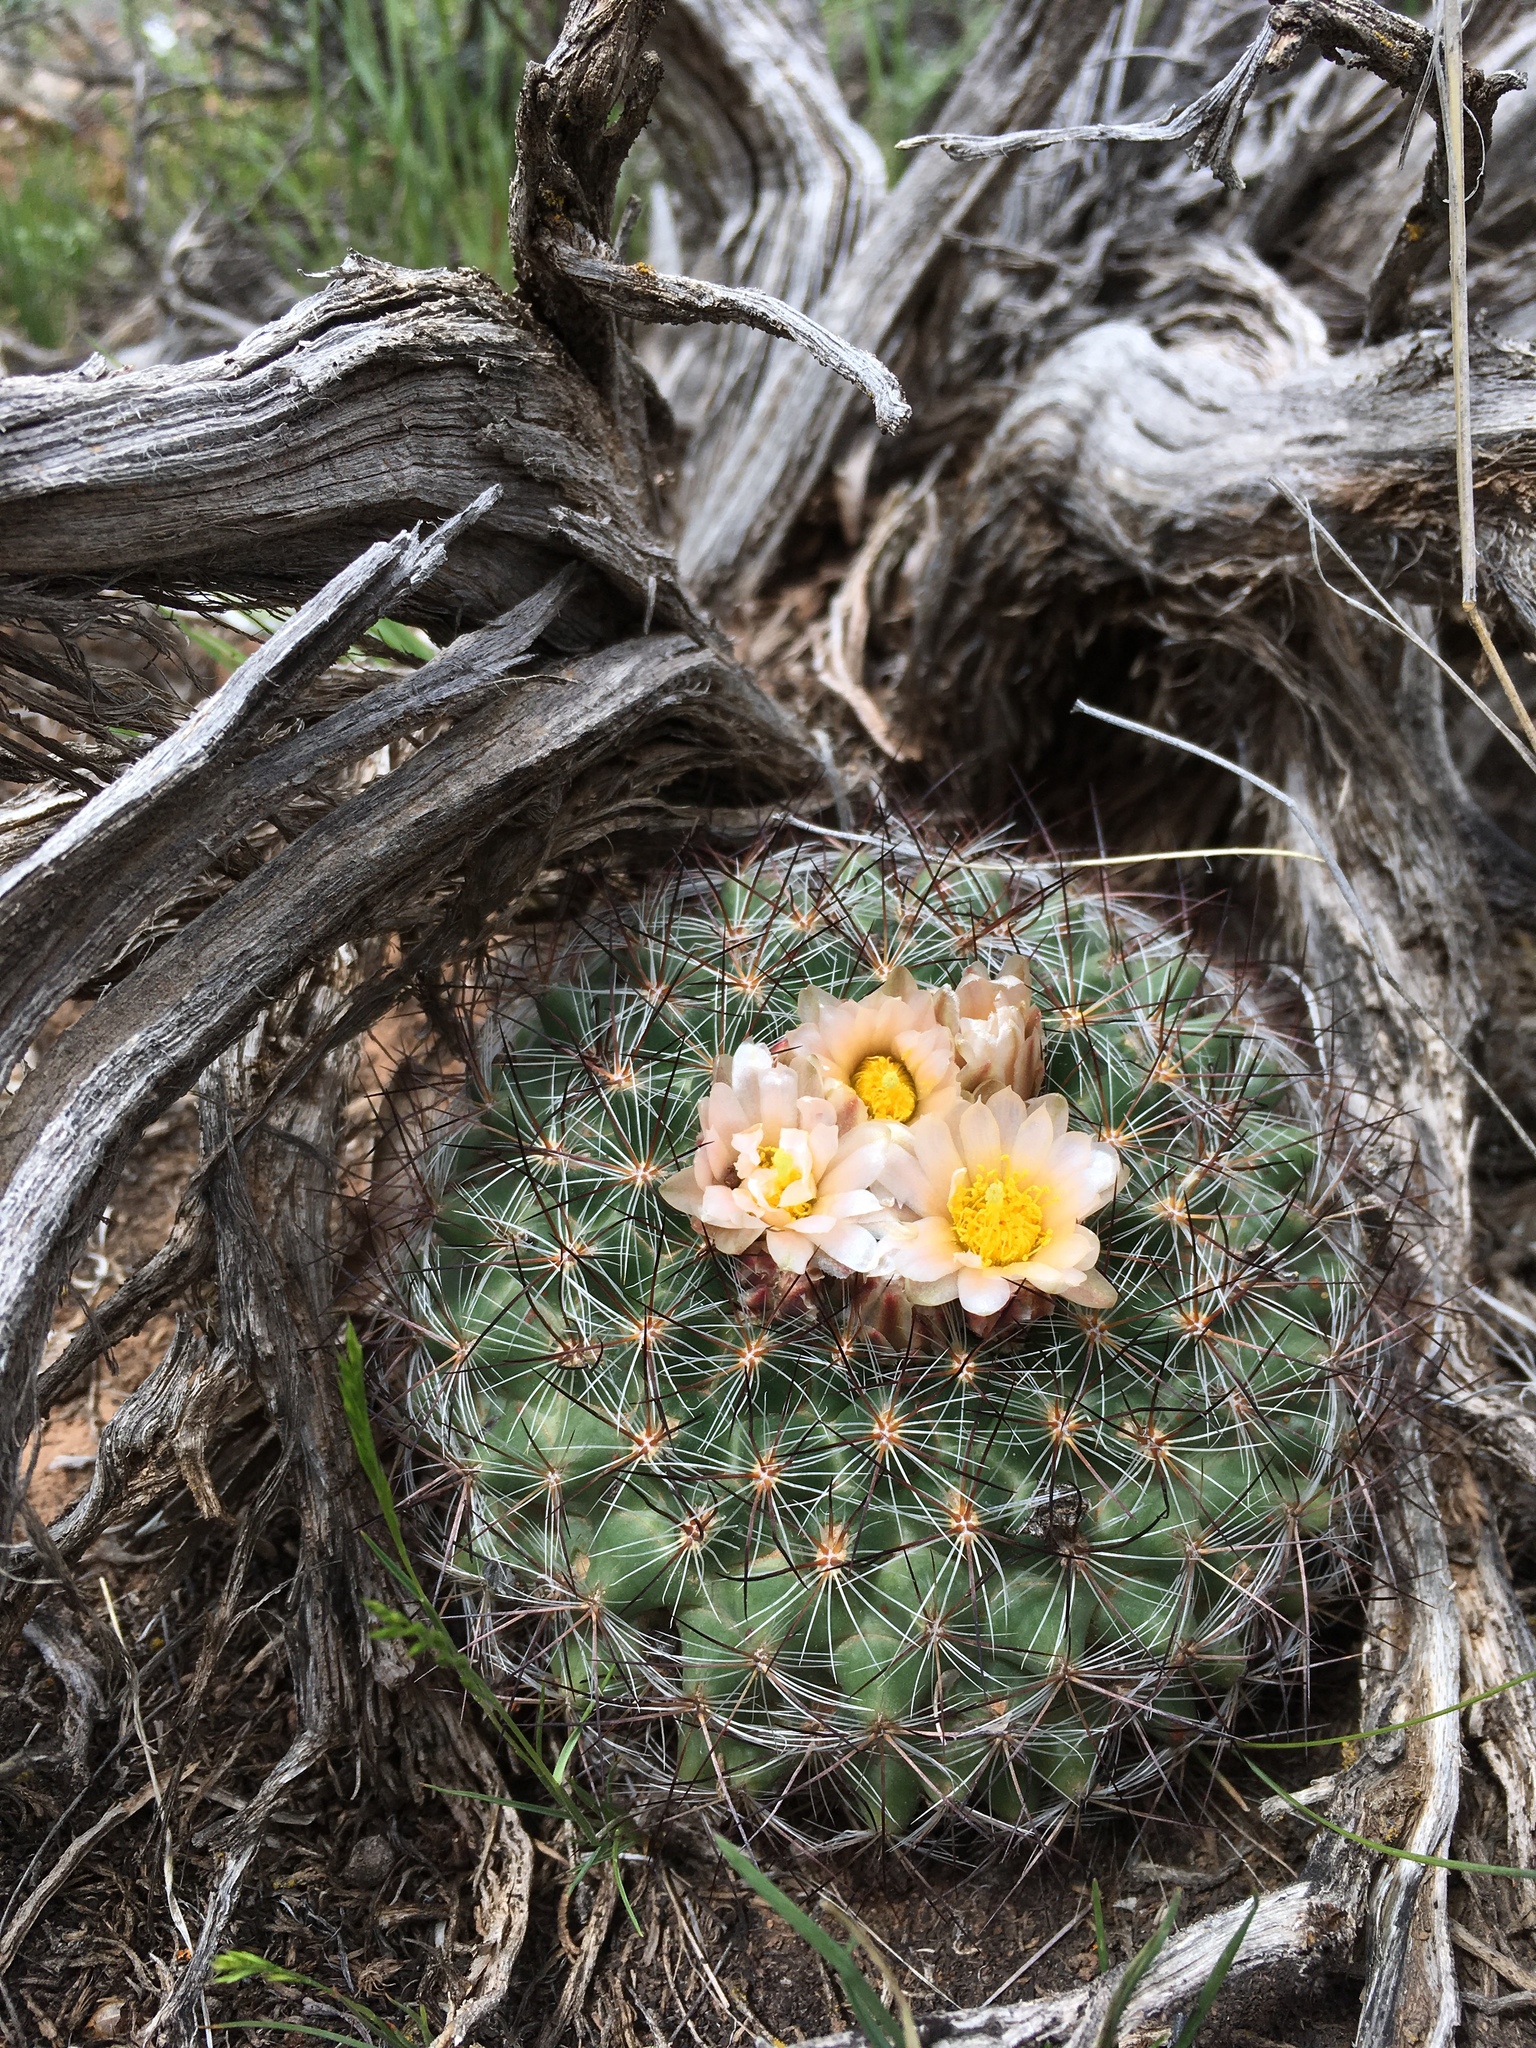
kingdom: Plantae
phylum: Tracheophyta
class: Magnoliopsida
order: Caryophyllales
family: Cactaceae
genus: Pediocactus
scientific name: Pediocactus simpsonii
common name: Simpson's hedgehog cactus
